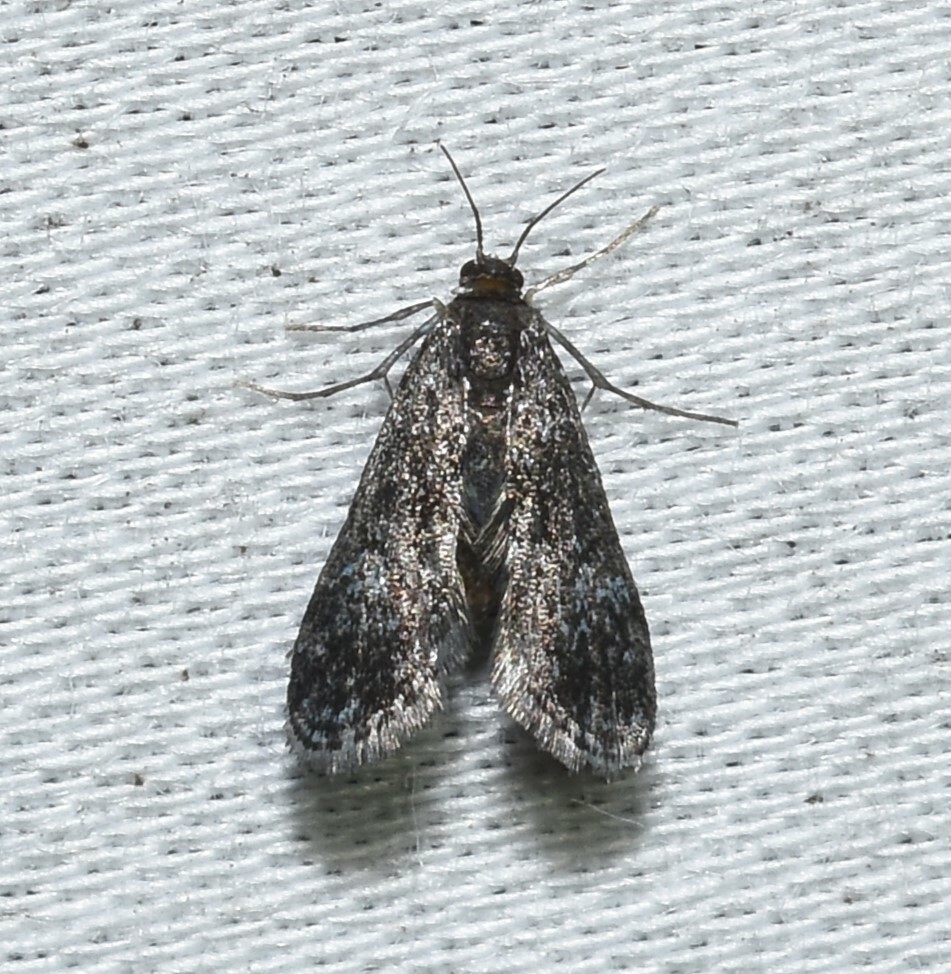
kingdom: Animalia
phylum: Arthropoda
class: Insecta
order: Lepidoptera
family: Crambidae
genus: Elophila
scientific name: Elophila tinealis
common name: Black duckweed moth
